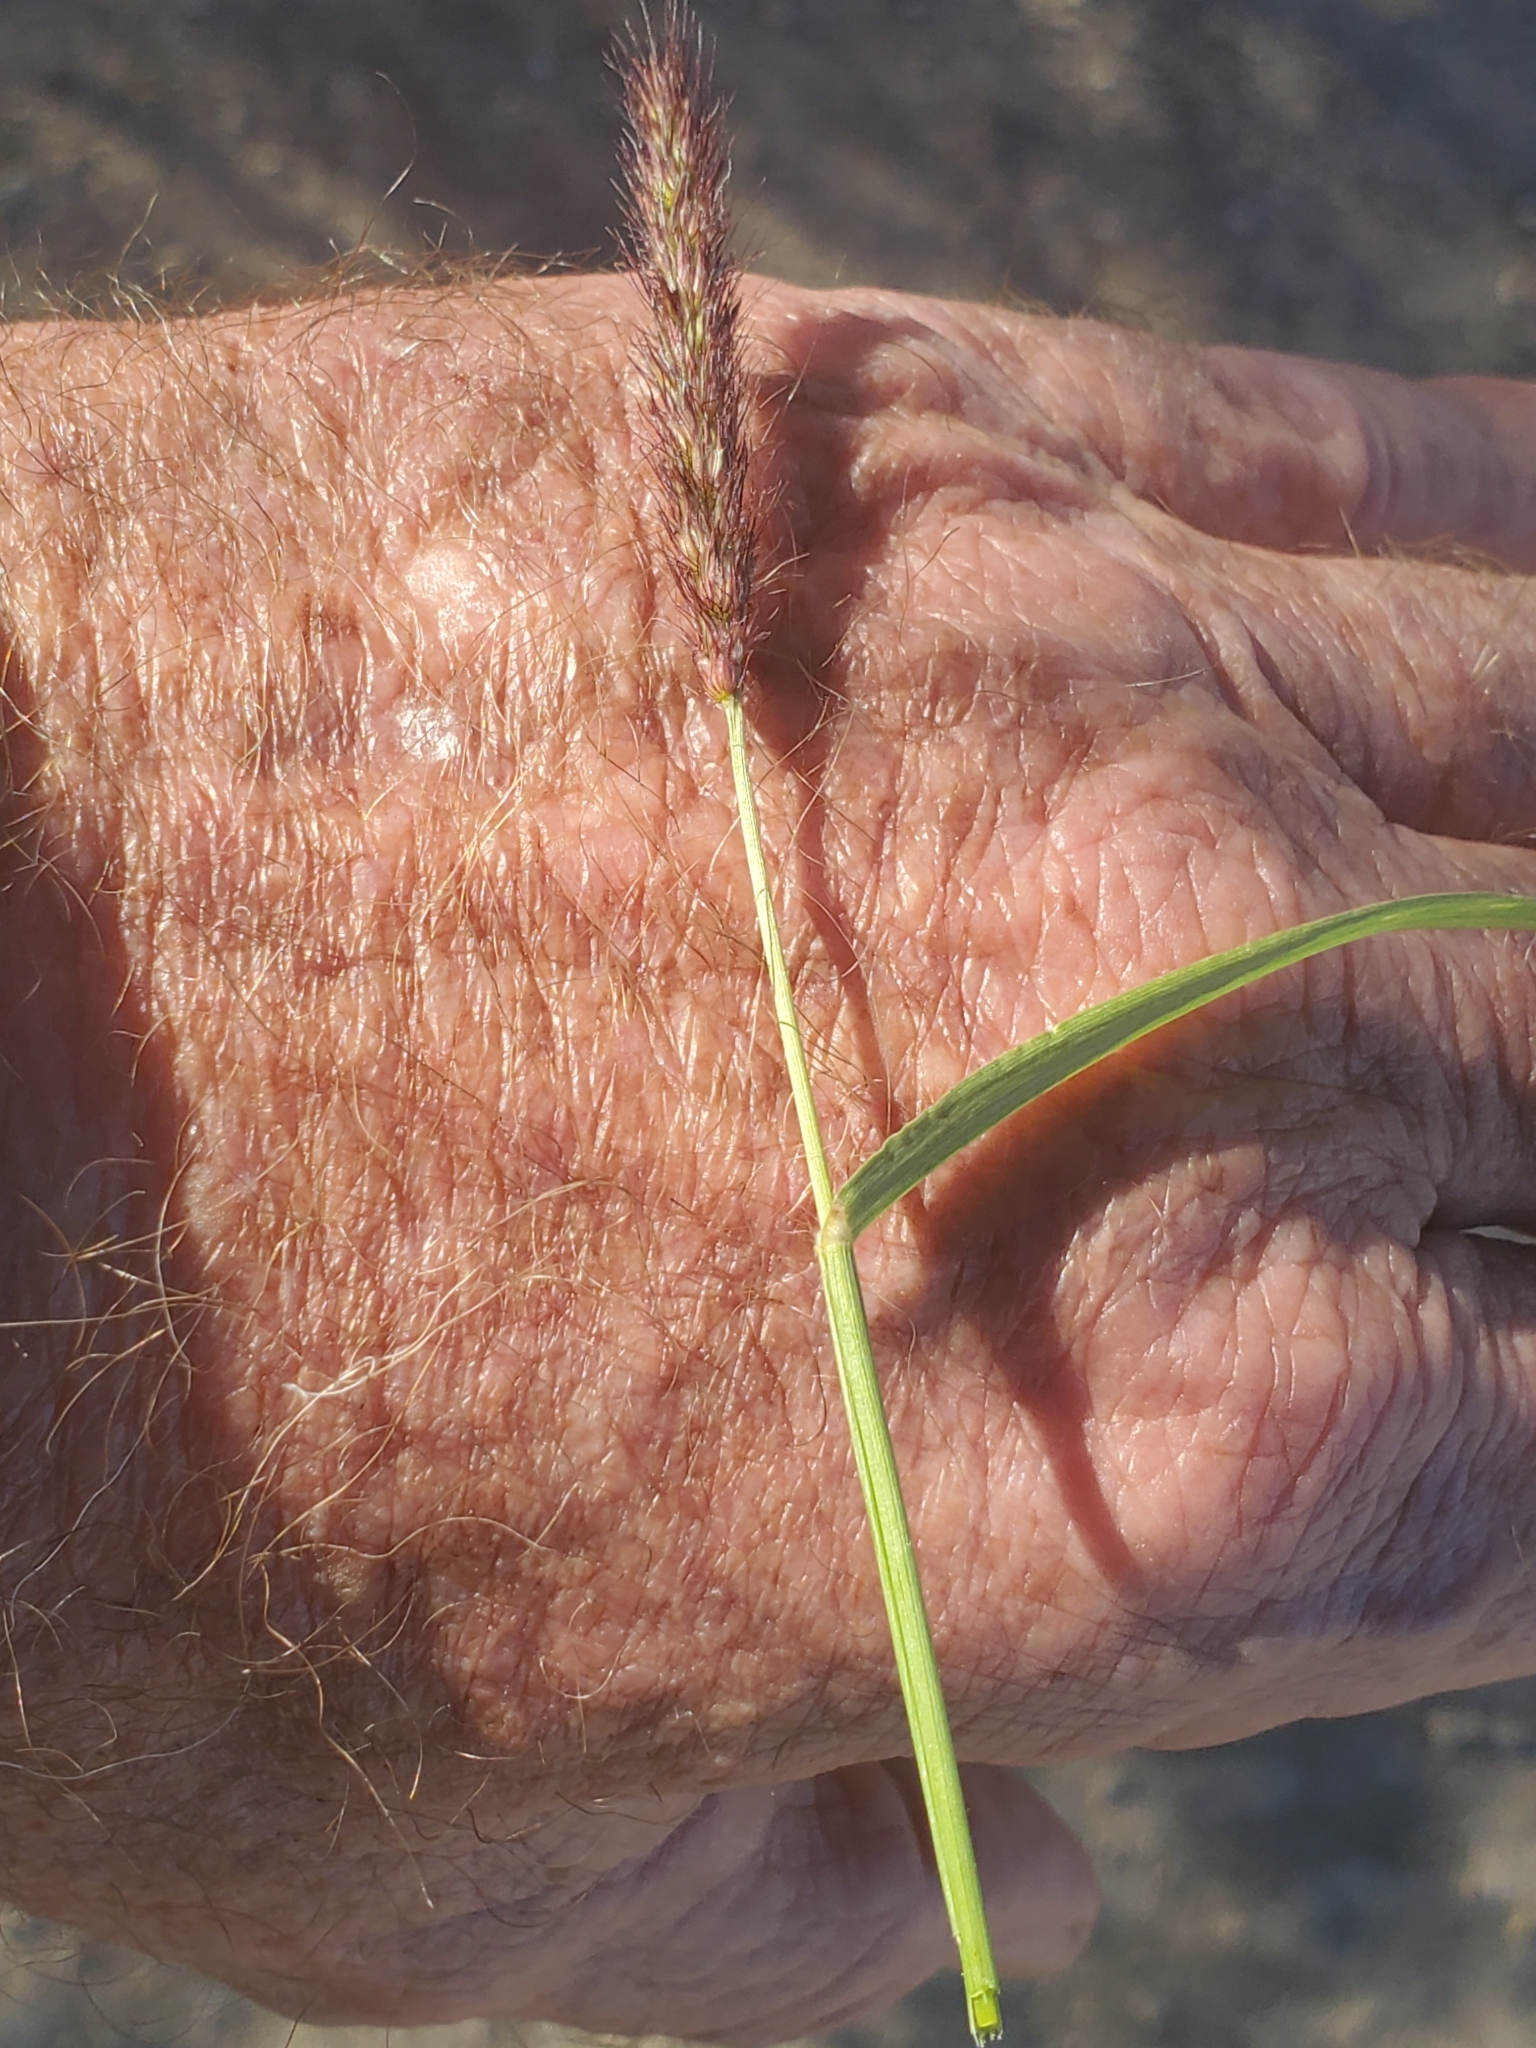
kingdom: Plantae
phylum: Tracheophyta
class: Liliopsida
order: Poales
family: Poaceae
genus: Cenchrus
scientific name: Cenchrus ciliaris
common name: Buffelgrass
